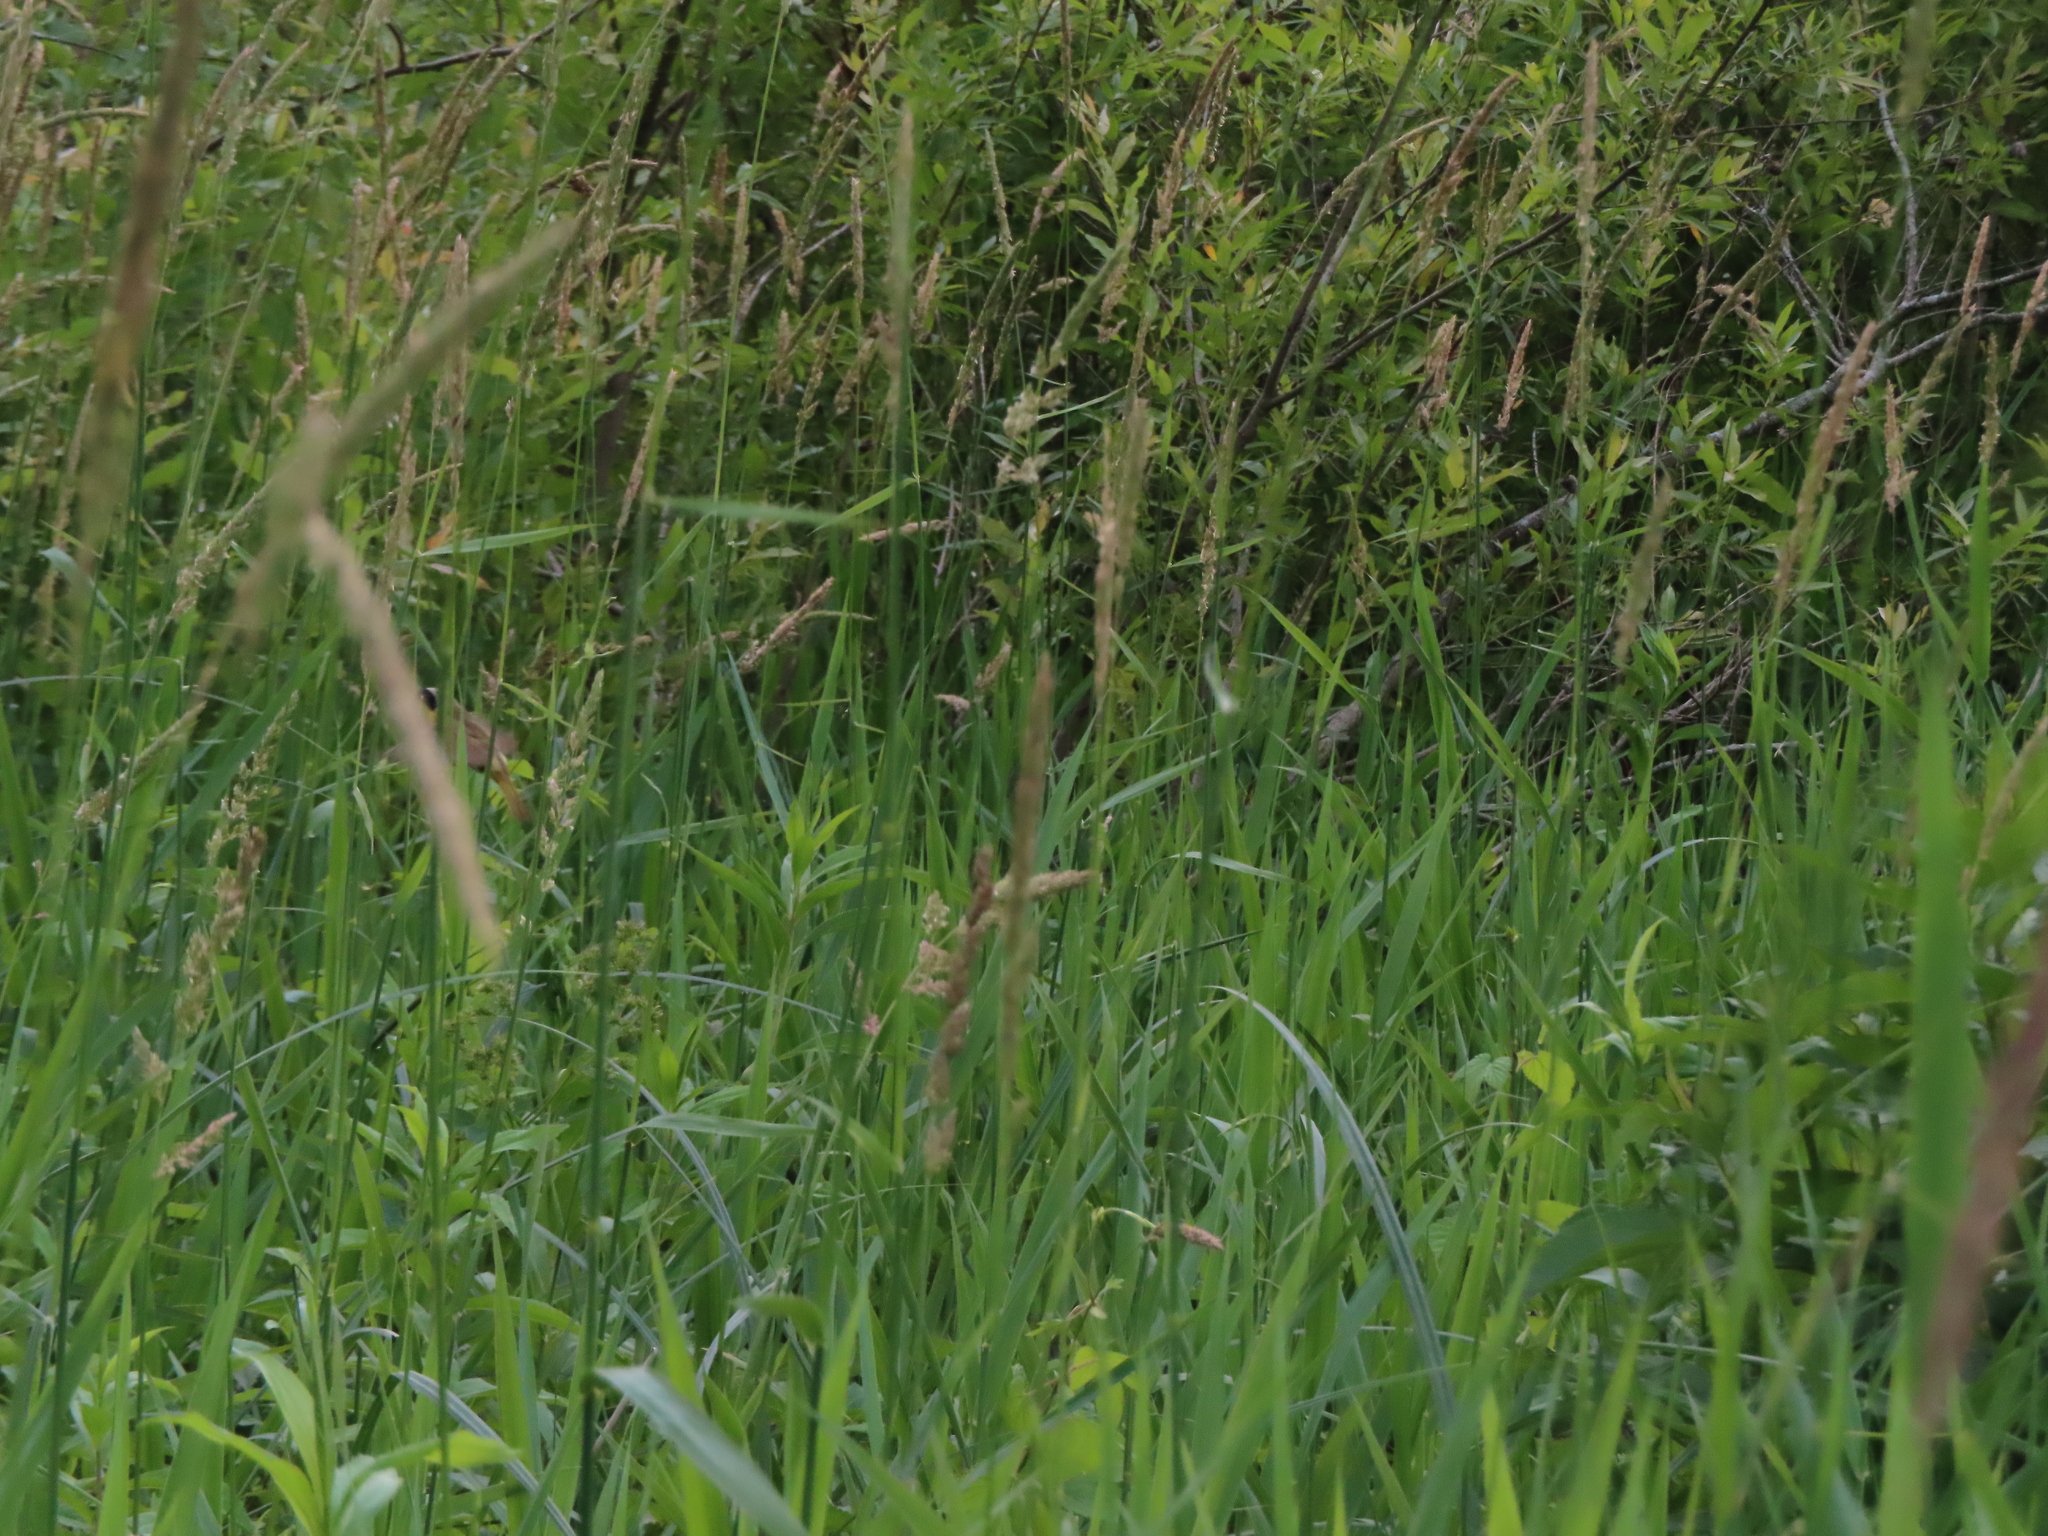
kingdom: Animalia
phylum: Chordata
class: Aves
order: Passeriformes
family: Parulidae
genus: Geothlypis
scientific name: Geothlypis trichas
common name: Common yellowthroat
